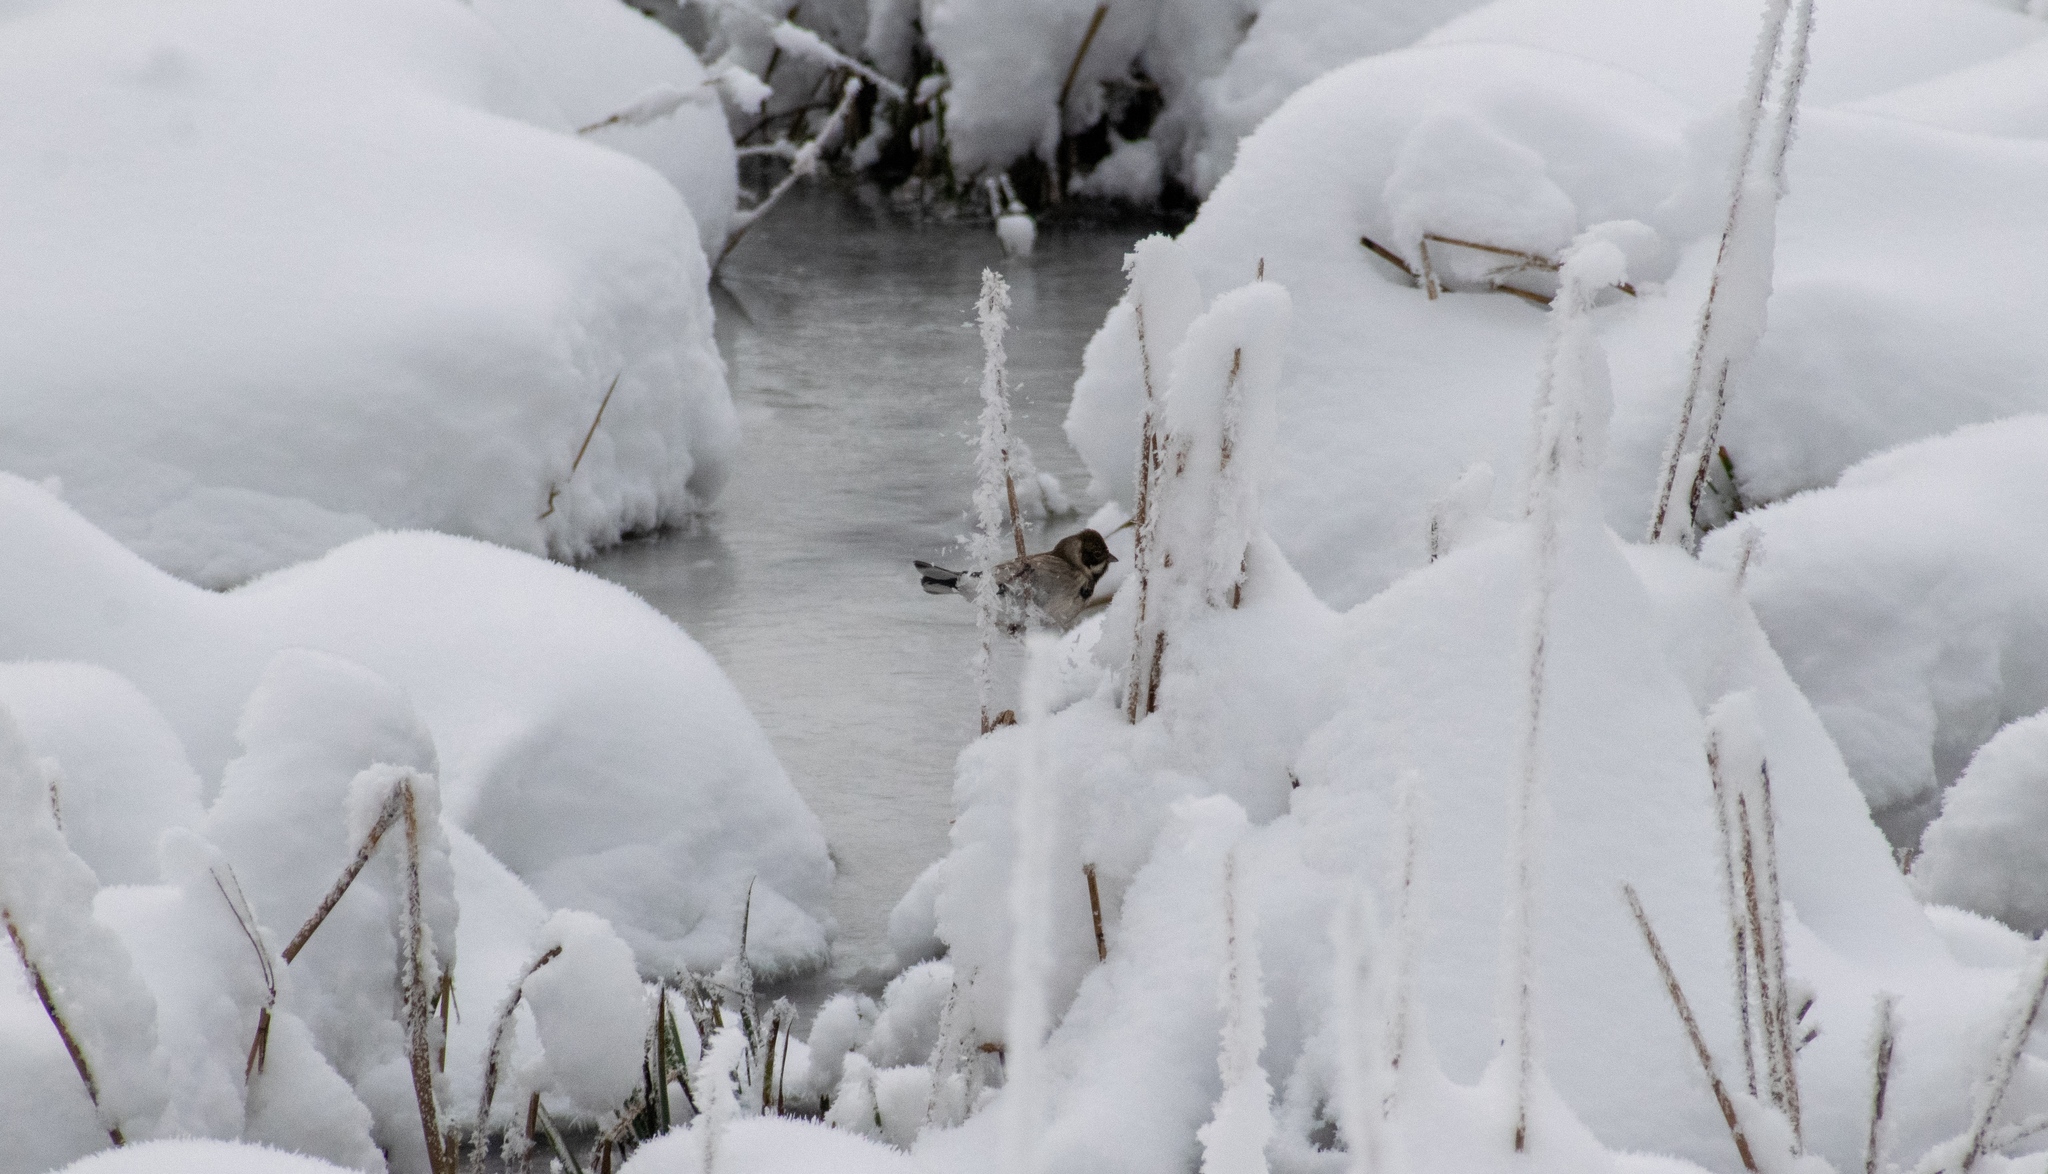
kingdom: Animalia
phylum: Chordata
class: Aves
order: Passeriformes
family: Emberizidae
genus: Emberiza
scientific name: Emberiza schoeniclus
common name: Reed bunting
